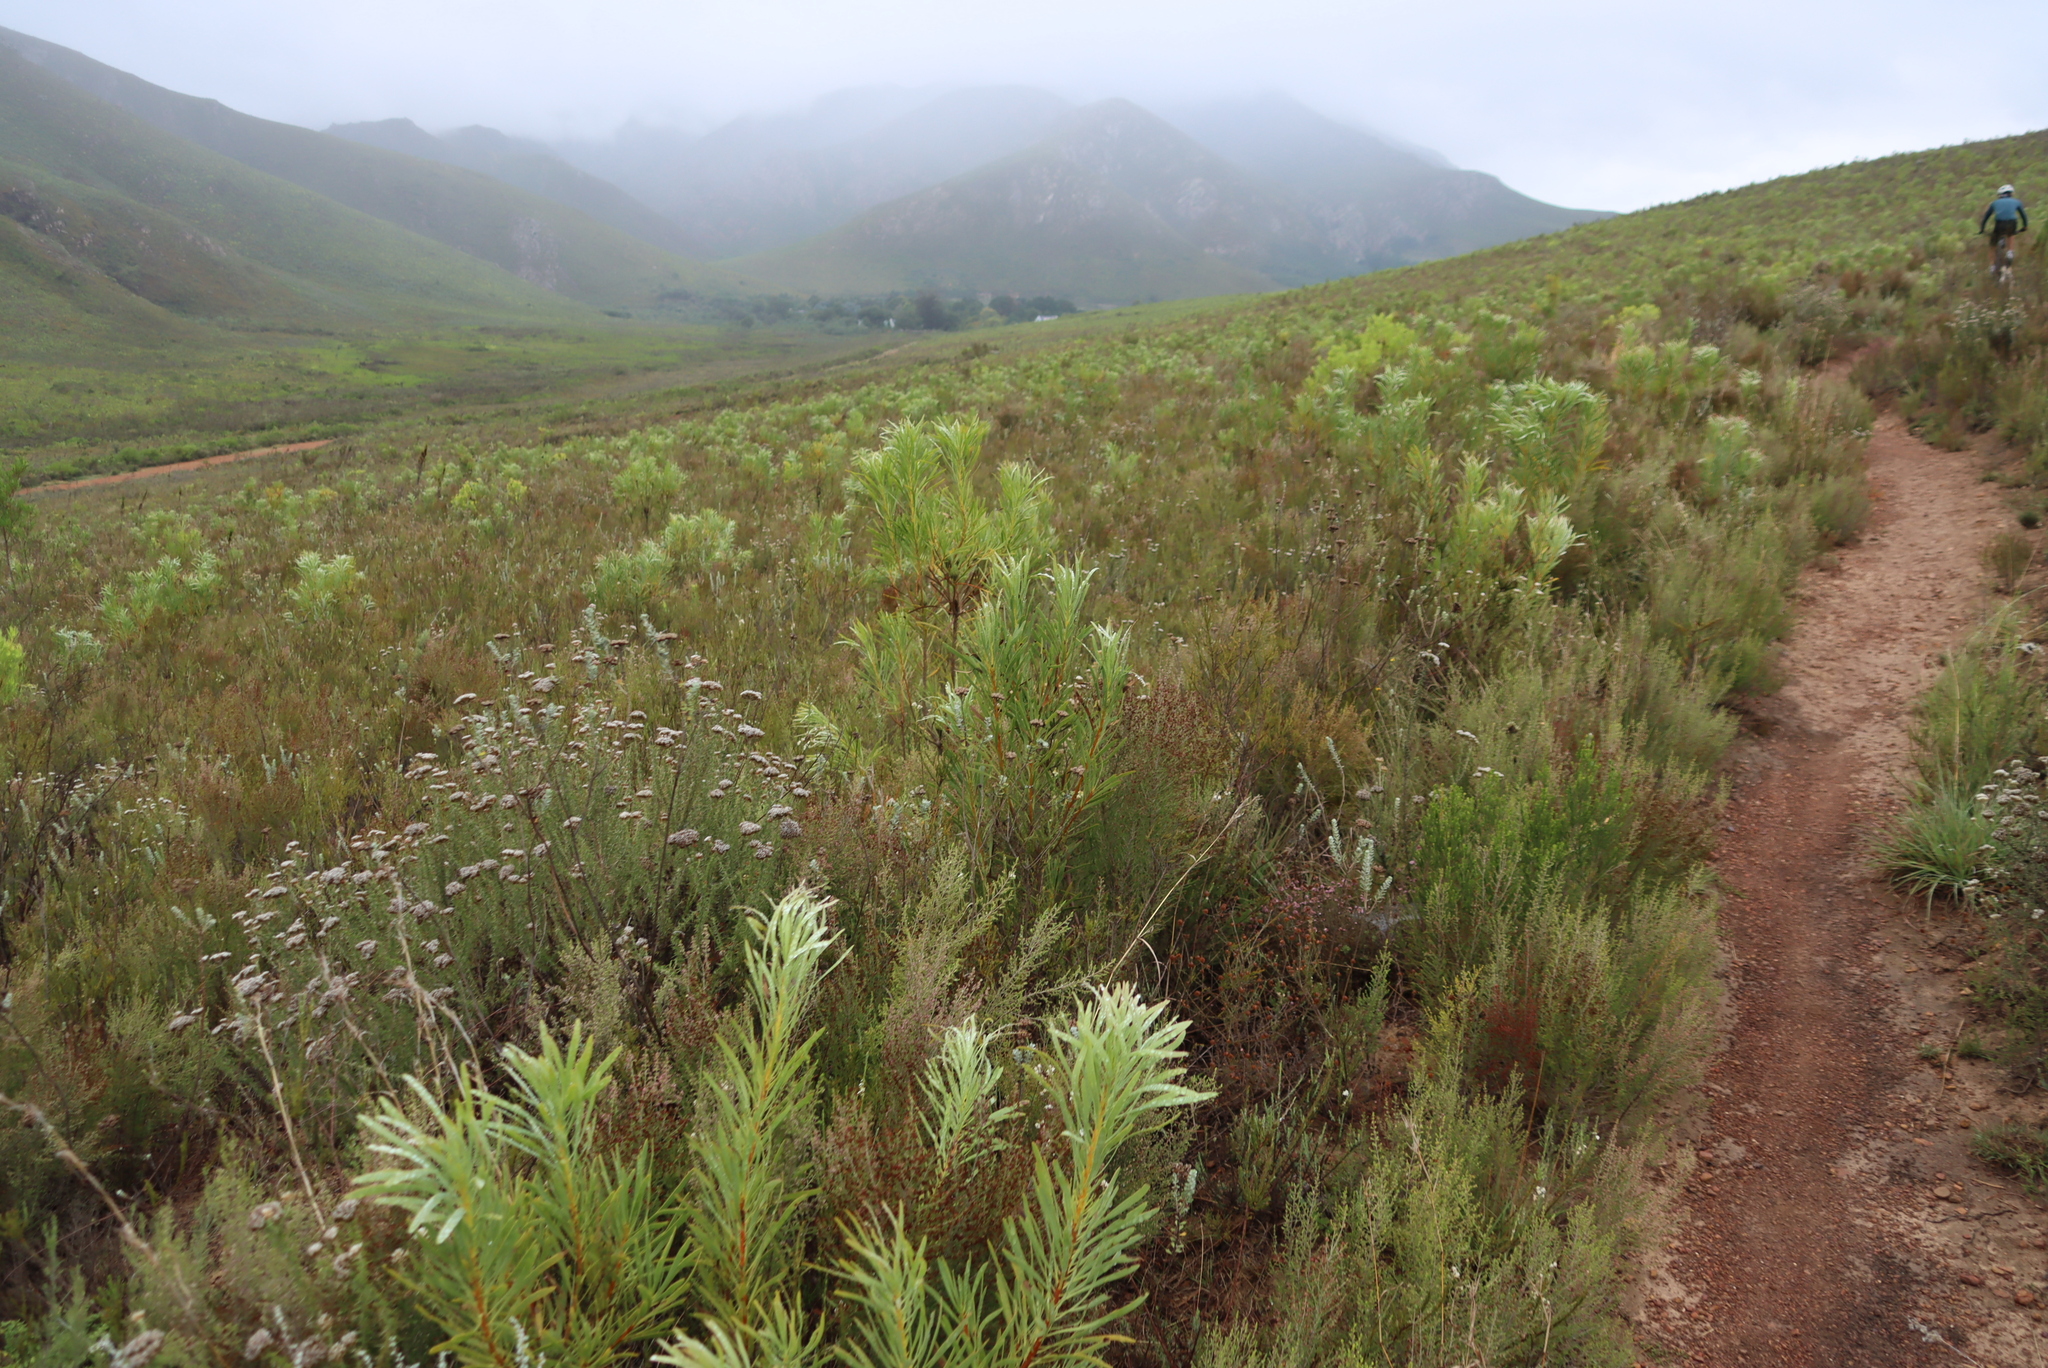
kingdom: Plantae
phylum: Tracheophyta
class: Magnoliopsida
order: Proteales
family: Proteaceae
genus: Protea
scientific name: Protea repens
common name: Sugarbush
